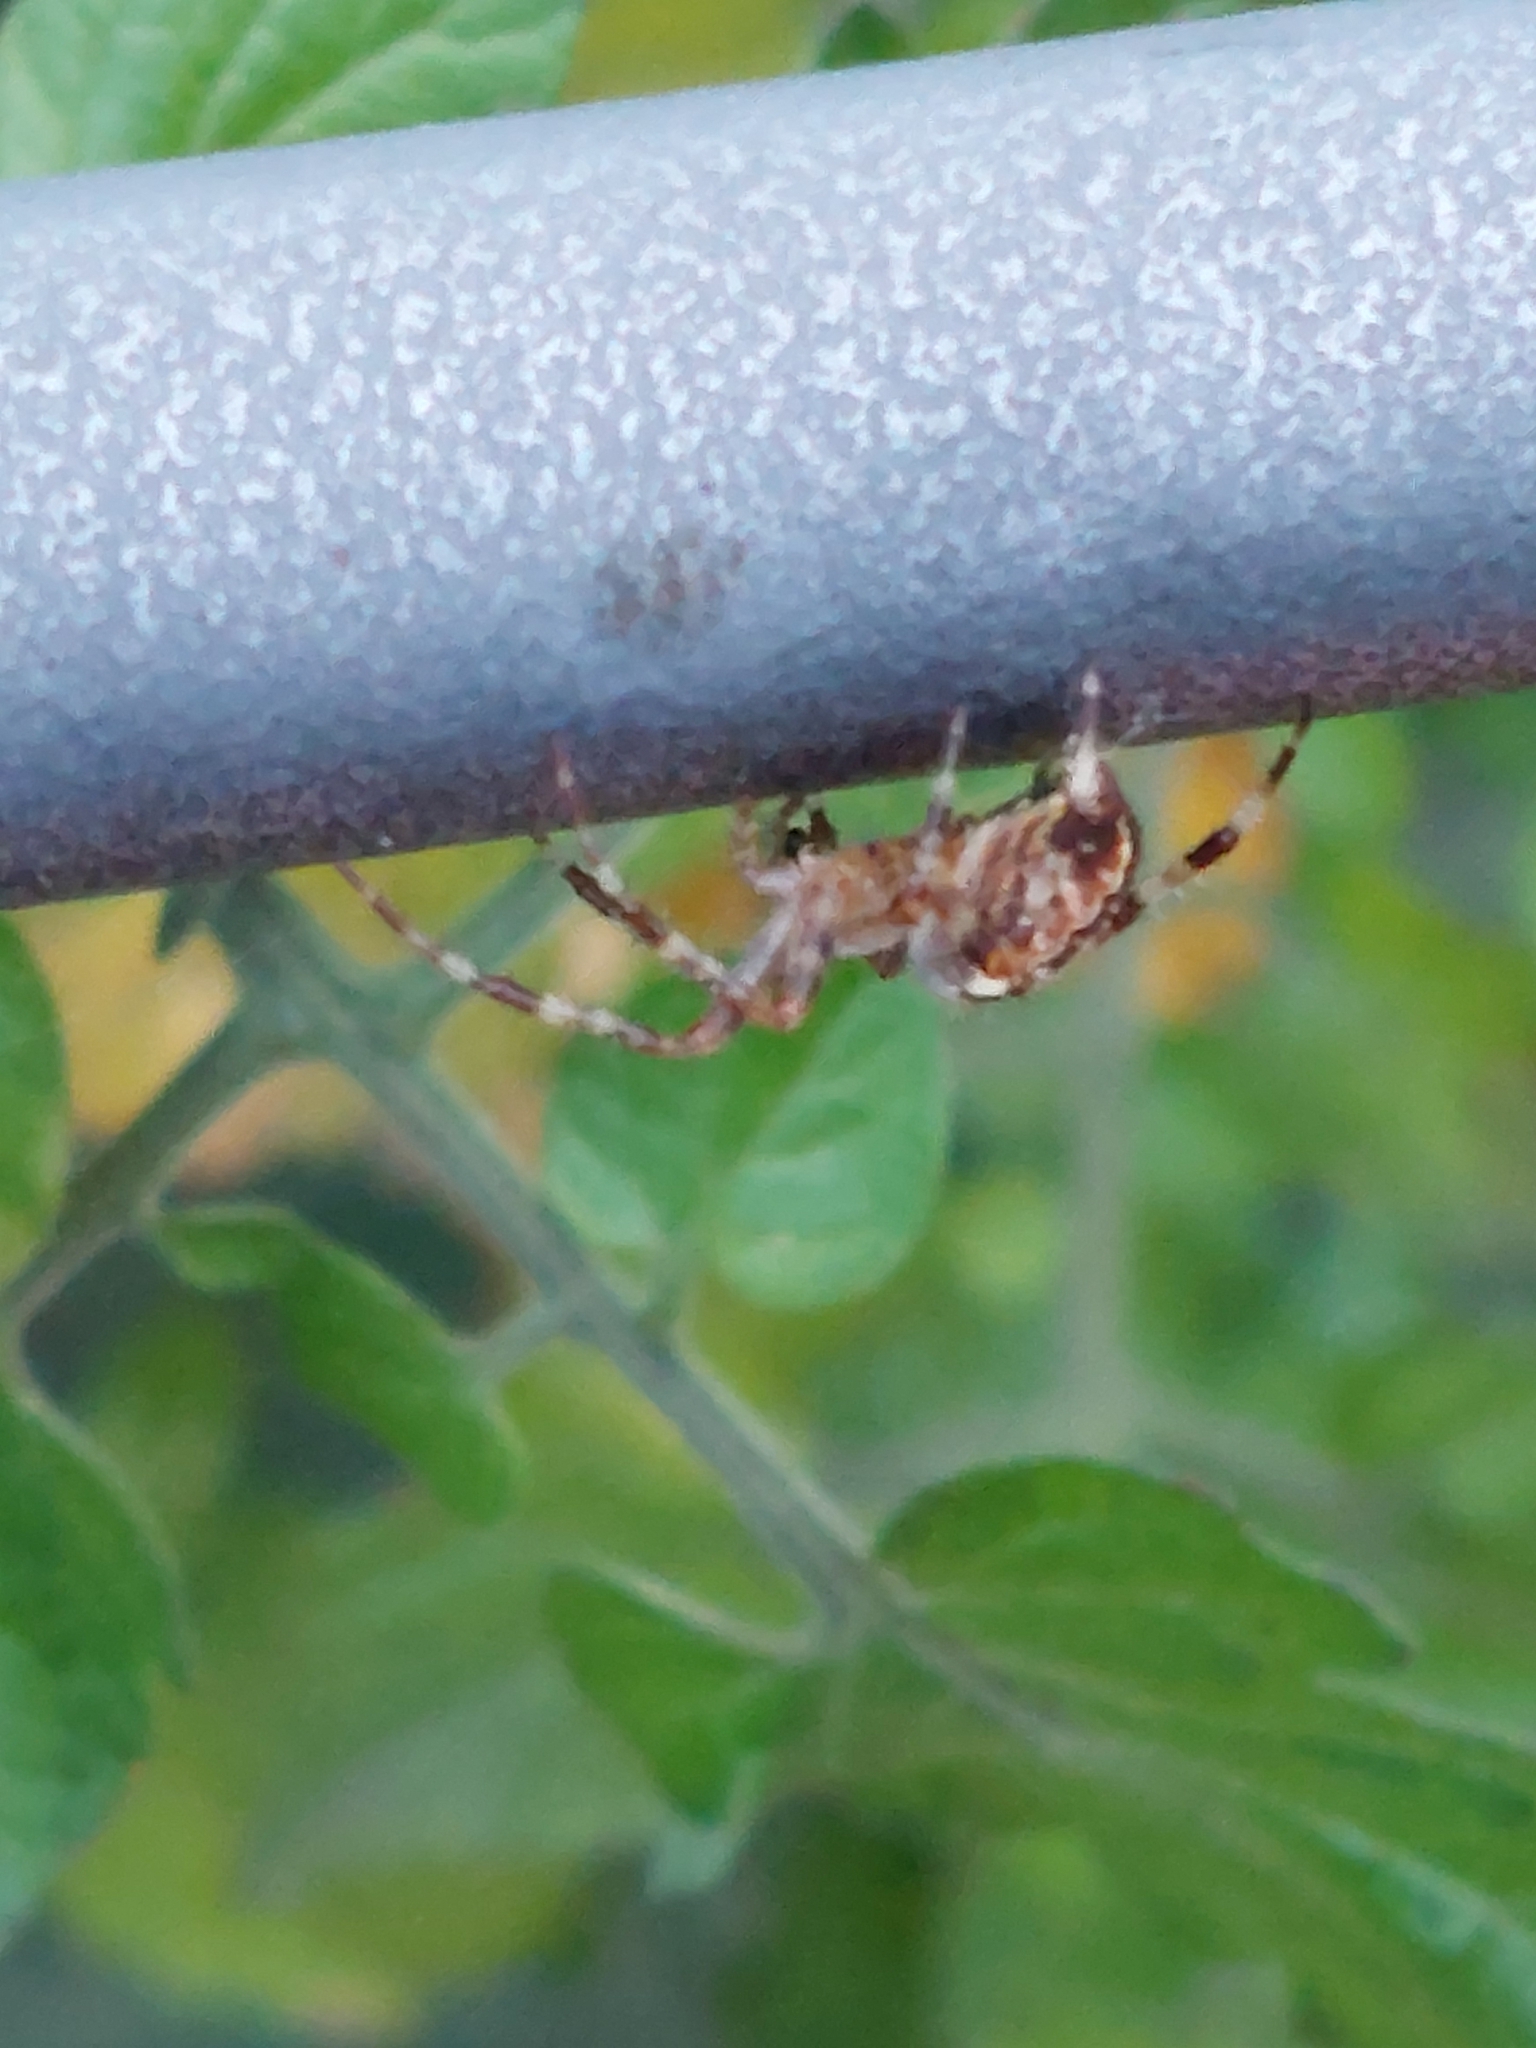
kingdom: Animalia
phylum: Arthropoda
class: Arachnida
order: Araneae
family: Araneidae
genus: Araneus
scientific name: Araneus diadematus
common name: Cross orbweaver
